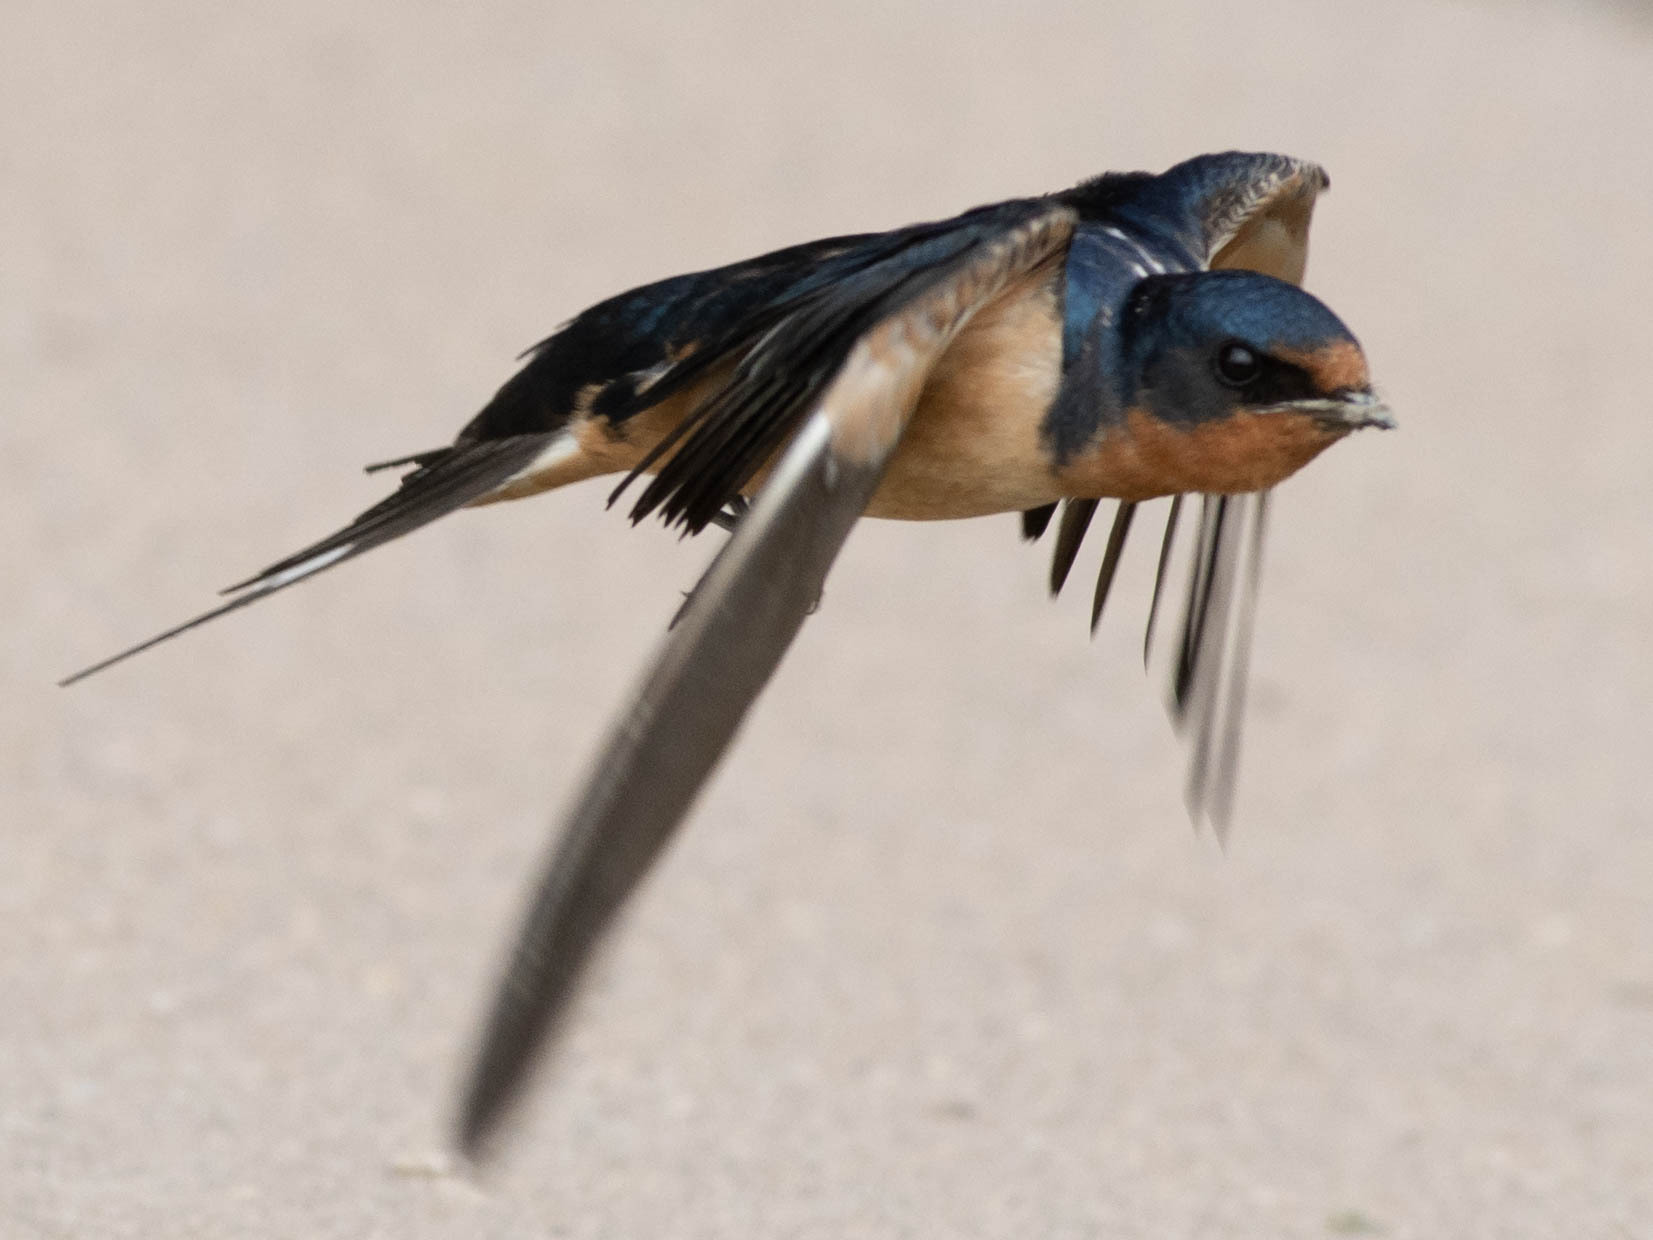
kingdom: Animalia
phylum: Chordata
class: Aves
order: Passeriformes
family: Hirundinidae
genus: Hirundo
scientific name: Hirundo rustica
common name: Barn swallow
